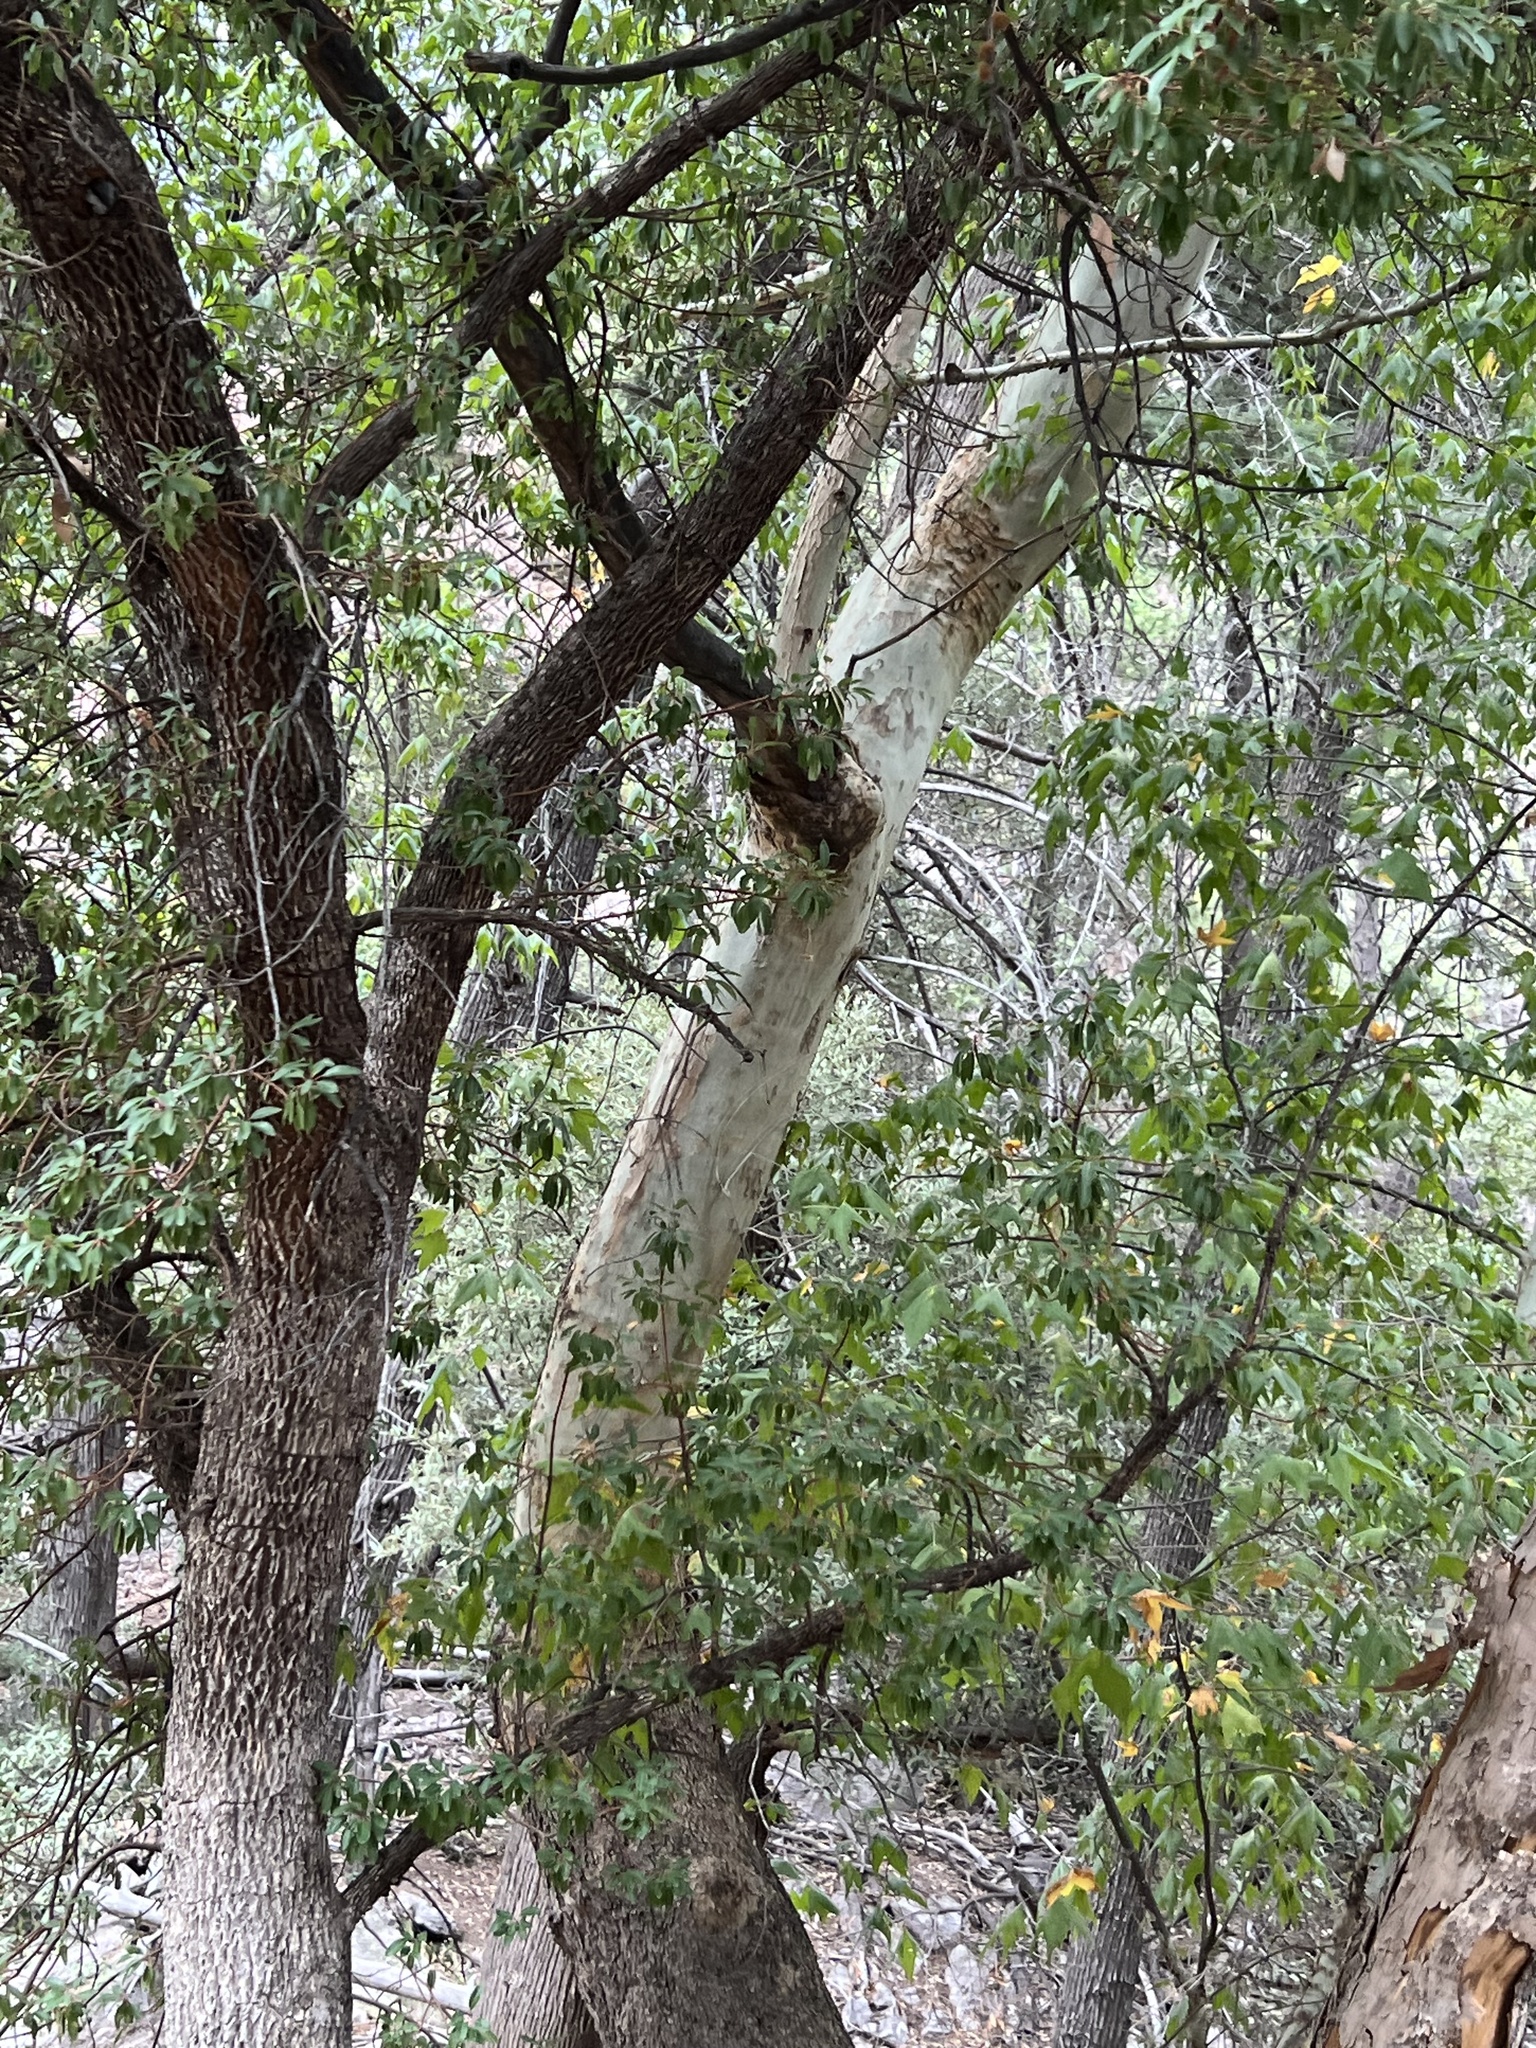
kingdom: Plantae
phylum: Tracheophyta
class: Magnoliopsida
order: Proteales
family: Platanaceae
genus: Platanus
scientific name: Platanus wrightii
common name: Arizona sycamore
